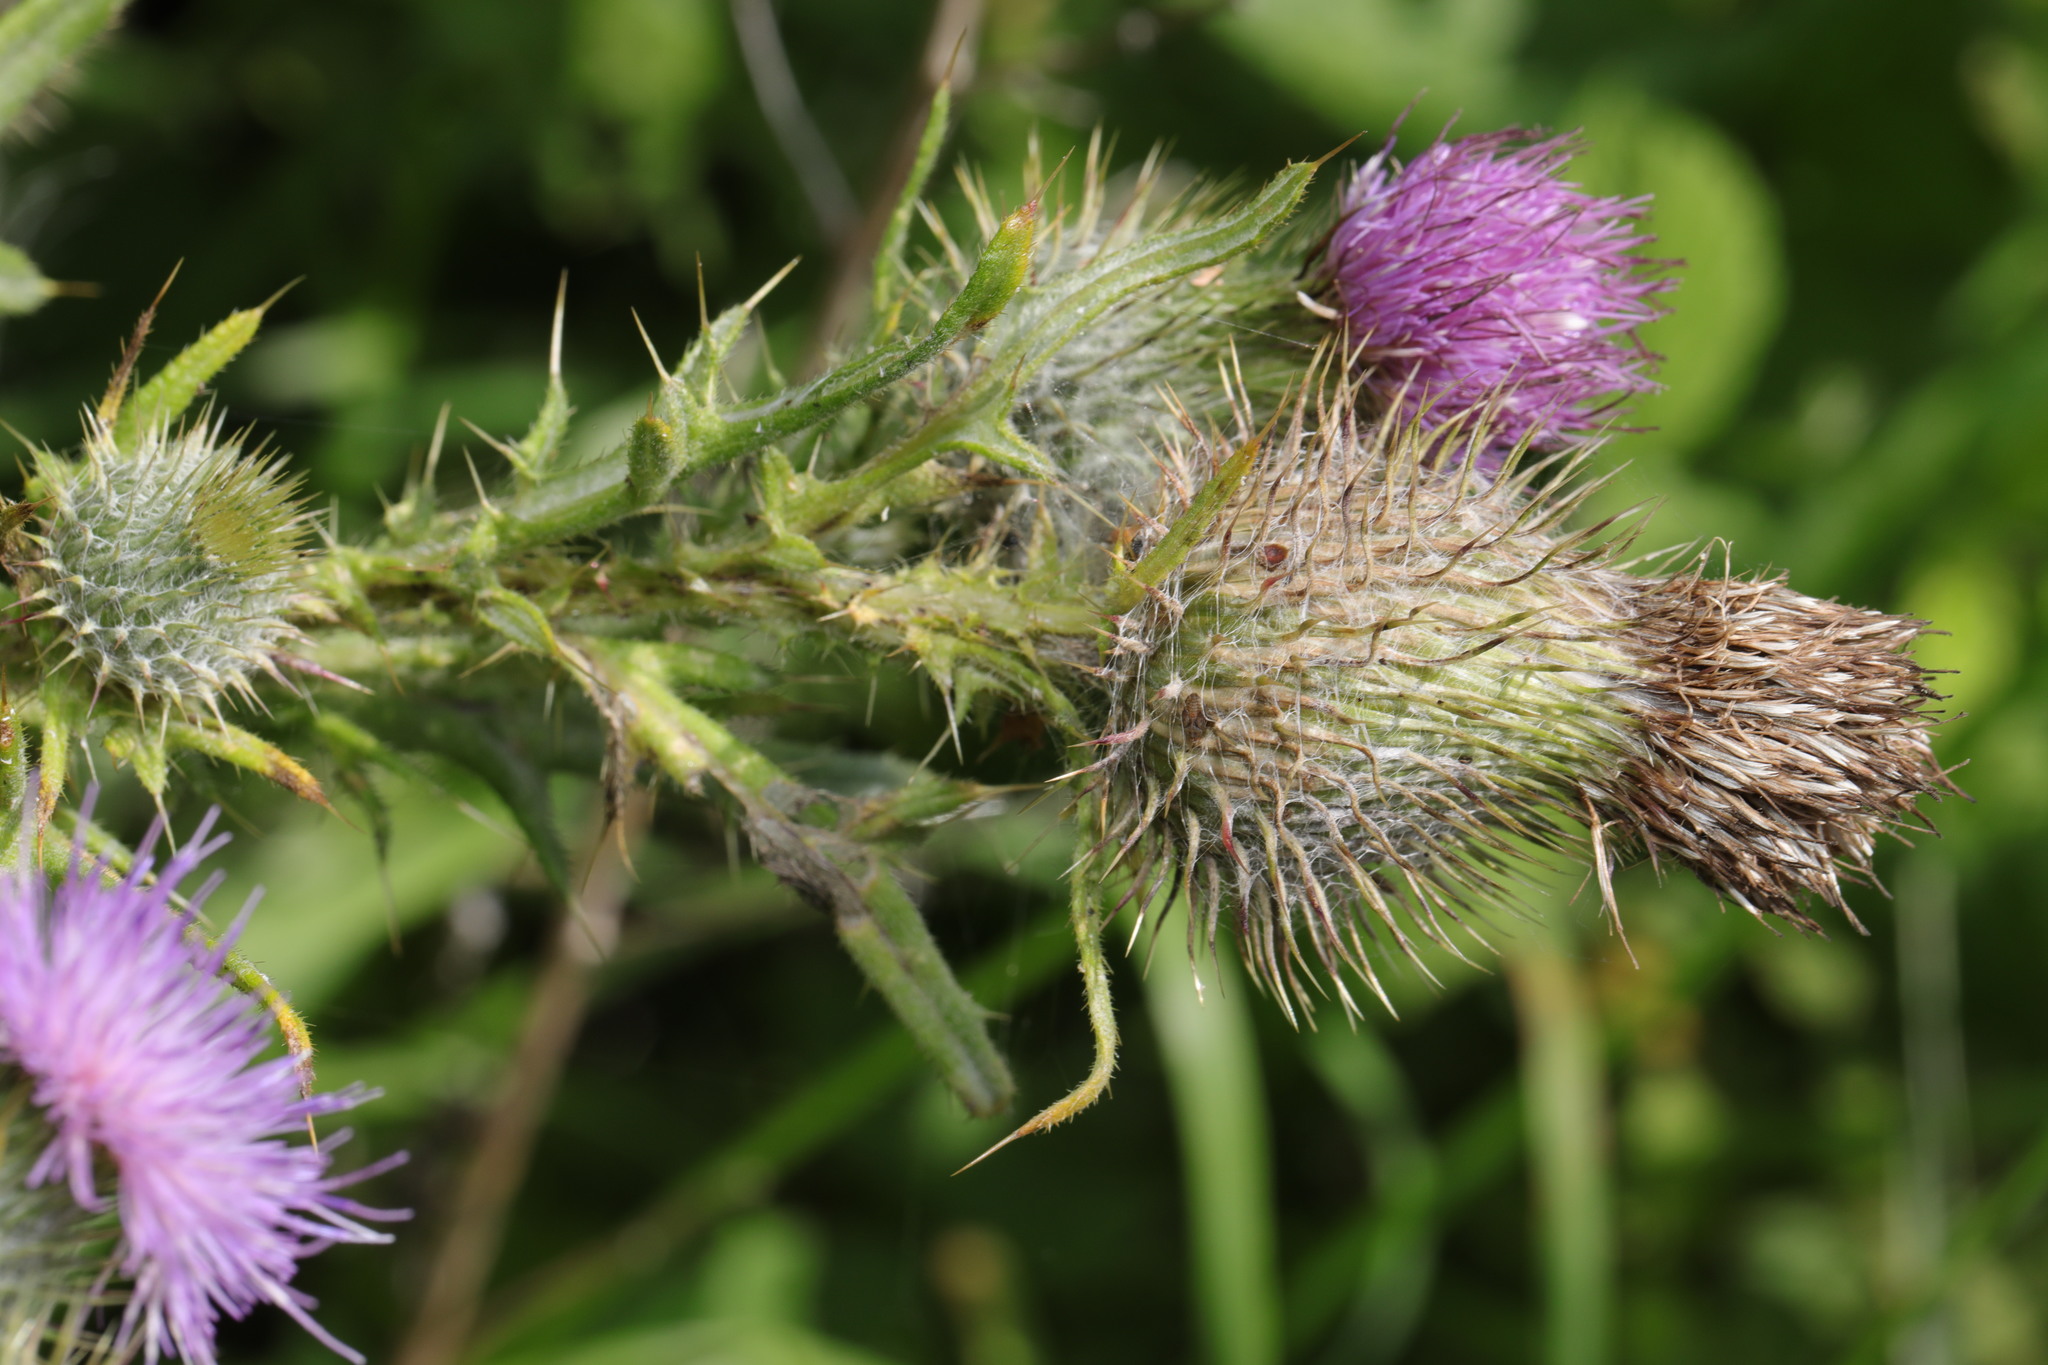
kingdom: Plantae
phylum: Tracheophyta
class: Magnoliopsida
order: Asterales
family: Asteraceae
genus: Cirsium
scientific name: Cirsium vulgare
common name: Bull thistle
